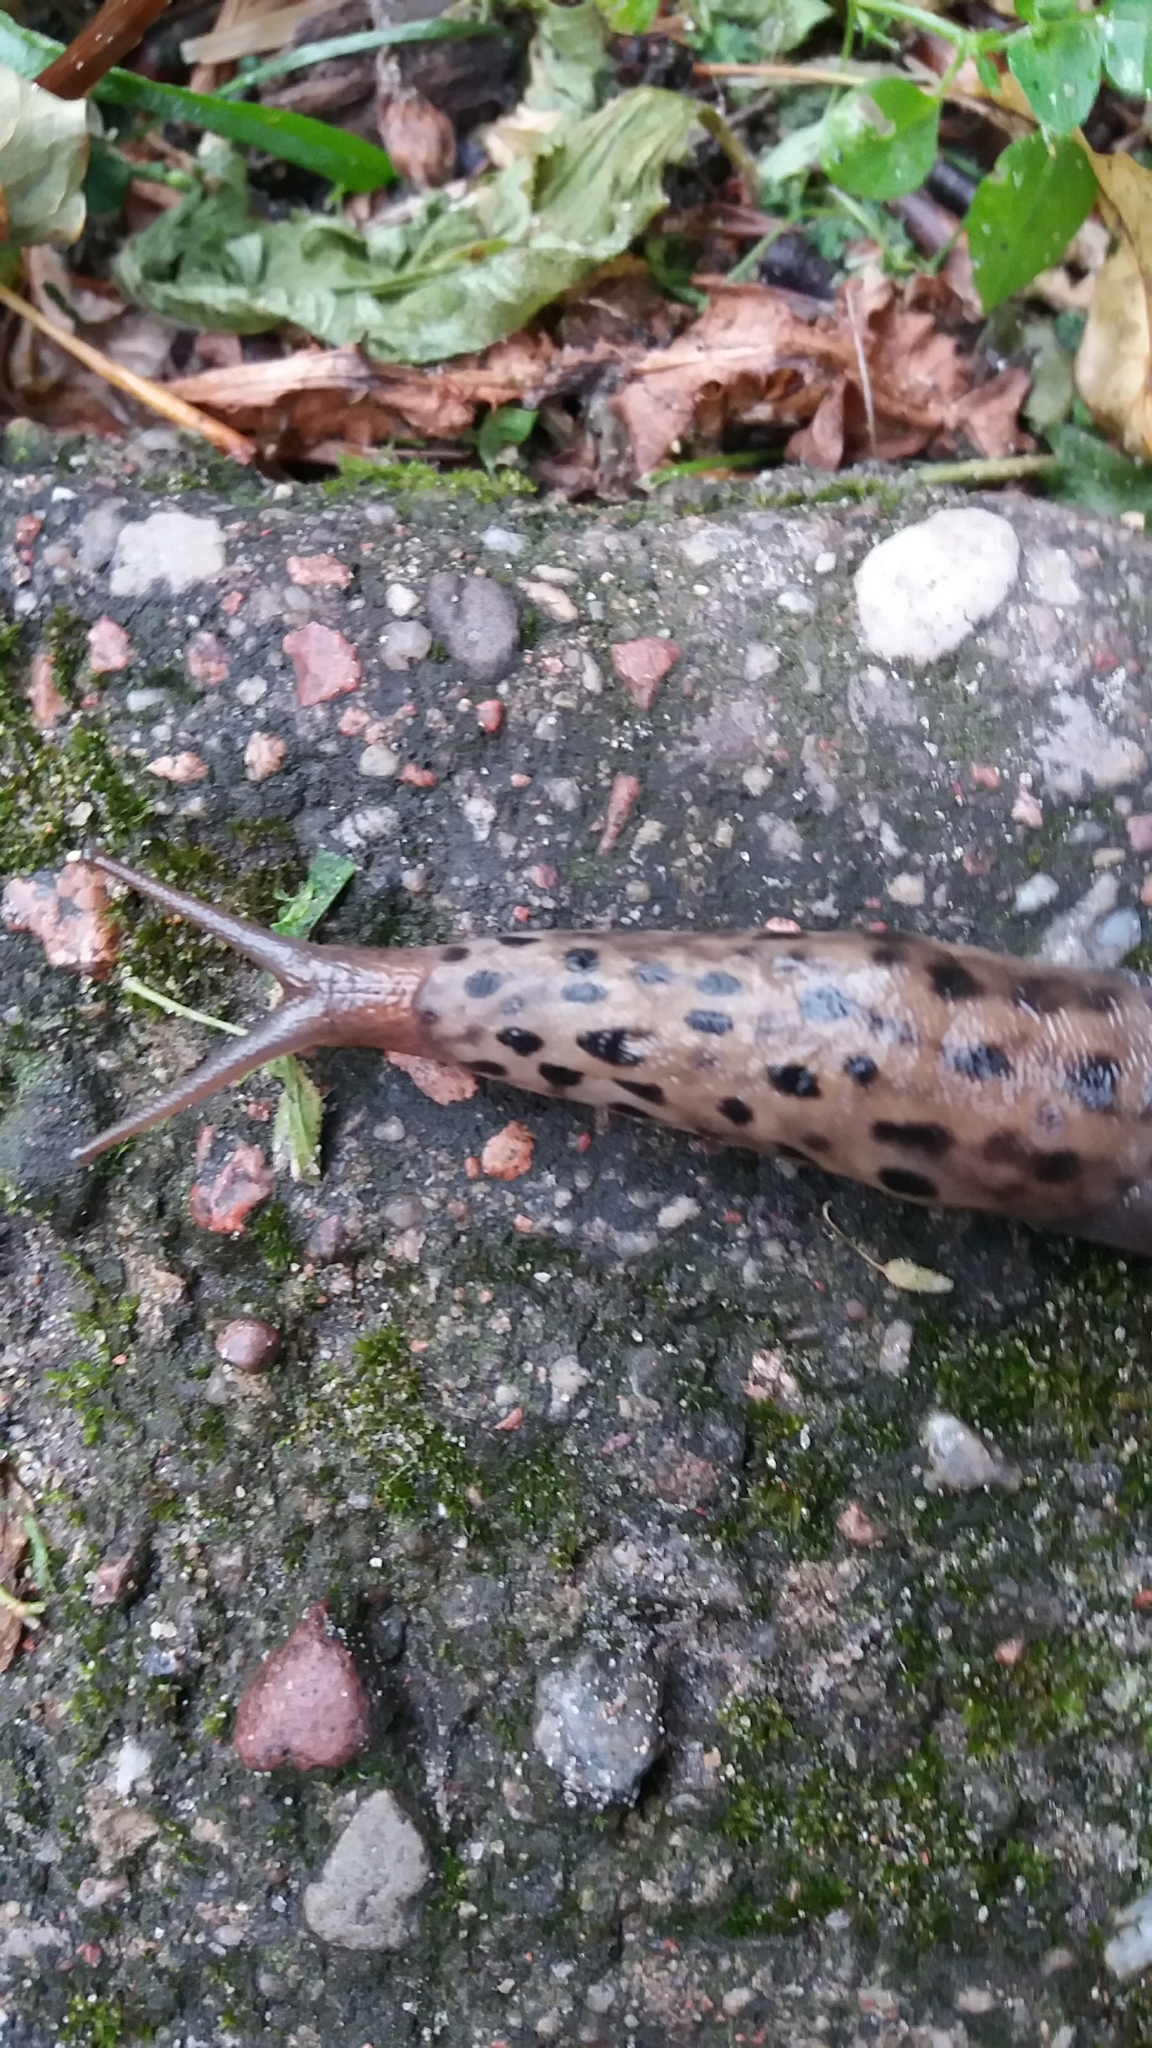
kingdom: Animalia
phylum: Mollusca
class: Gastropoda
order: Stylommatophora
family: Limacidae
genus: Limax
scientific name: Limax maximus
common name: Great grey slug
